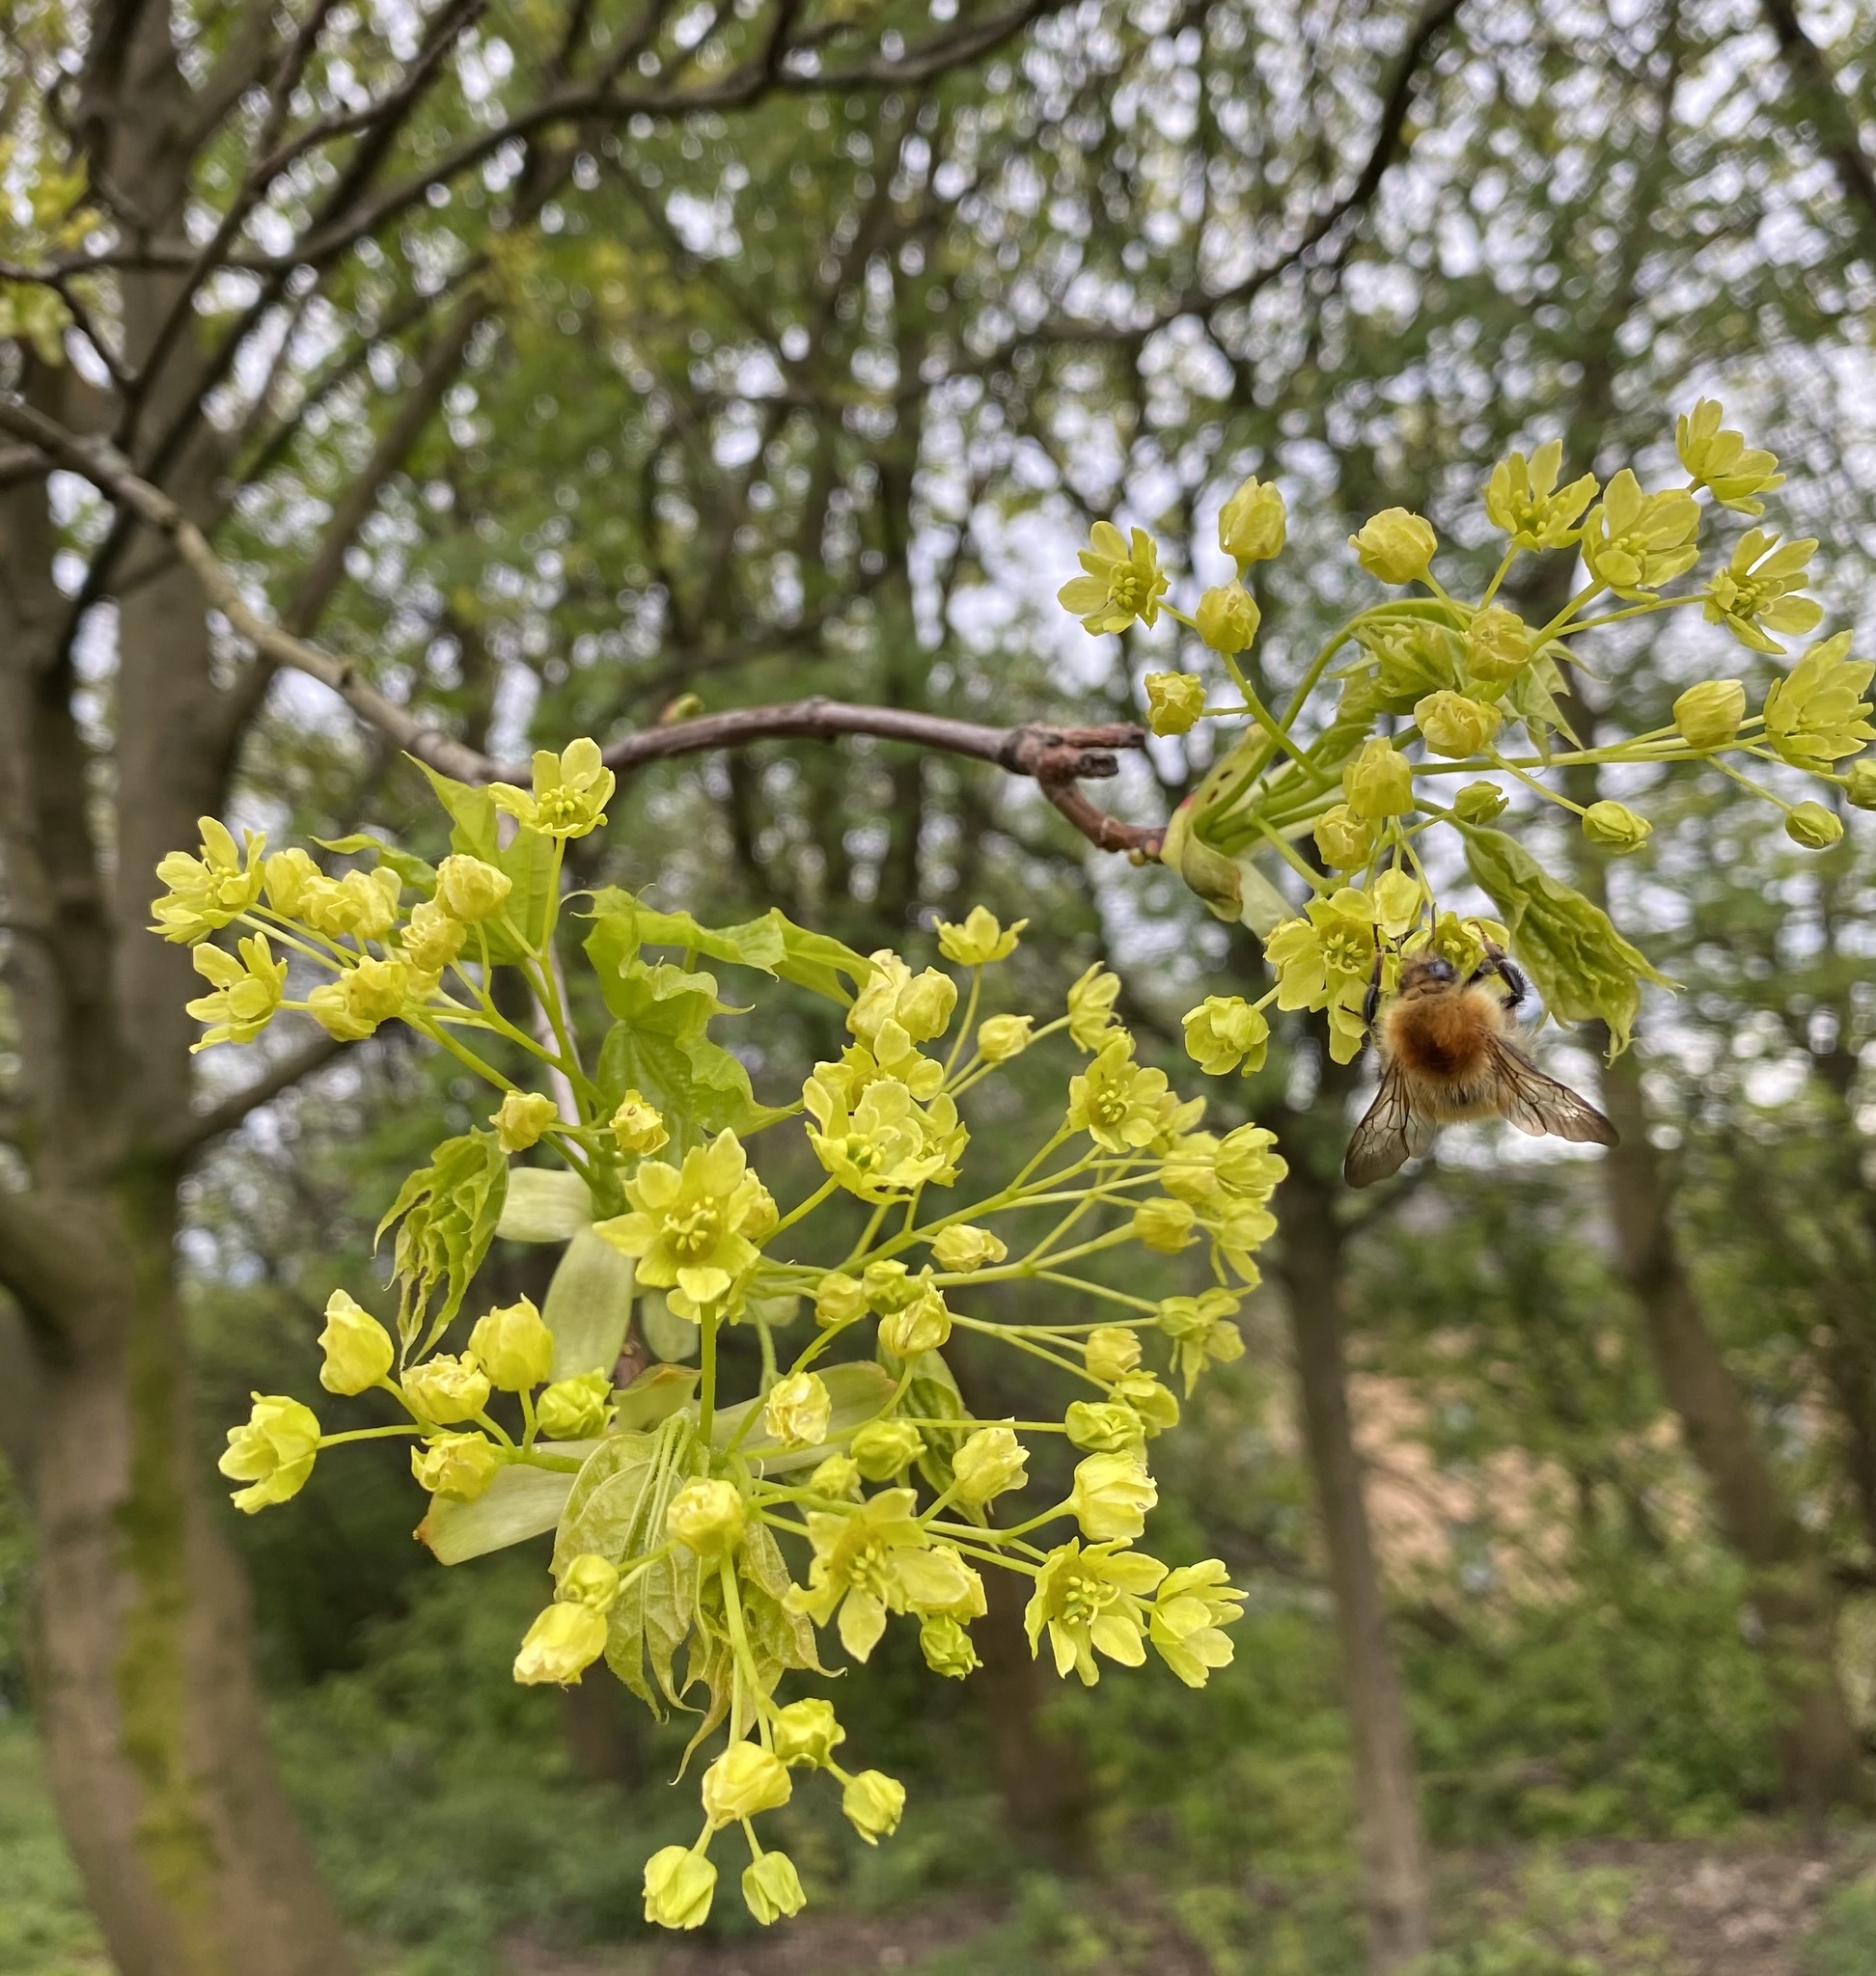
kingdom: Animalia
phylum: Arthropoda
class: Insecta
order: Hymenoptera
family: Apidae
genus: Bombus
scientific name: Bombus pascuorum
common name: Common carder bee
